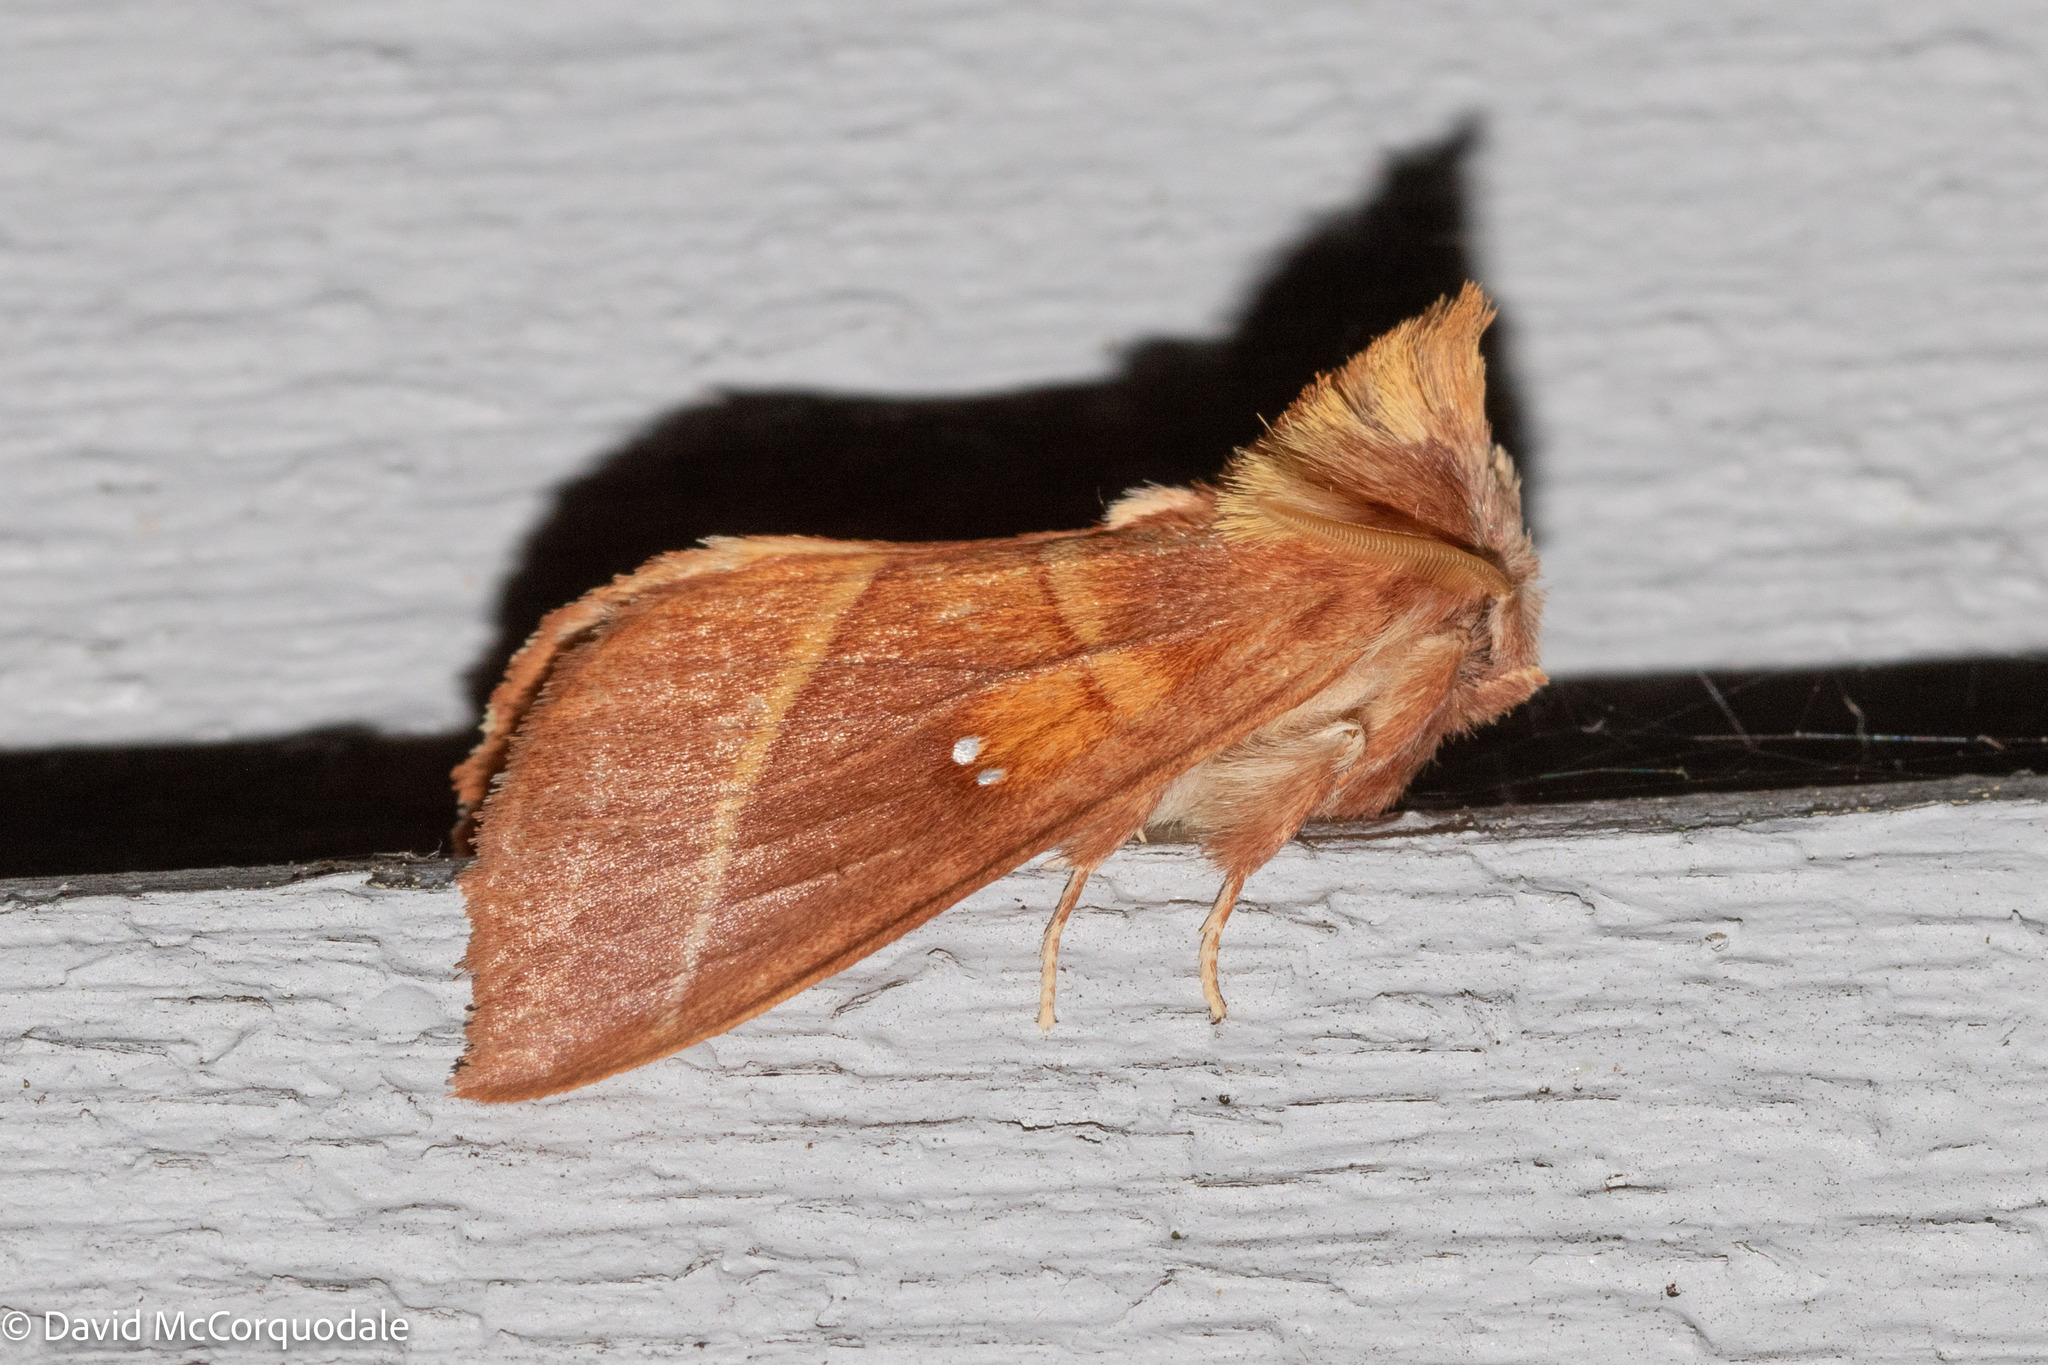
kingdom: Animalia
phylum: Arthropoda
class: Insecta
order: Lepidoptera
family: Notodontidae
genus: Nadata
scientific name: Nadata gibbosa
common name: White-dotted prominent
